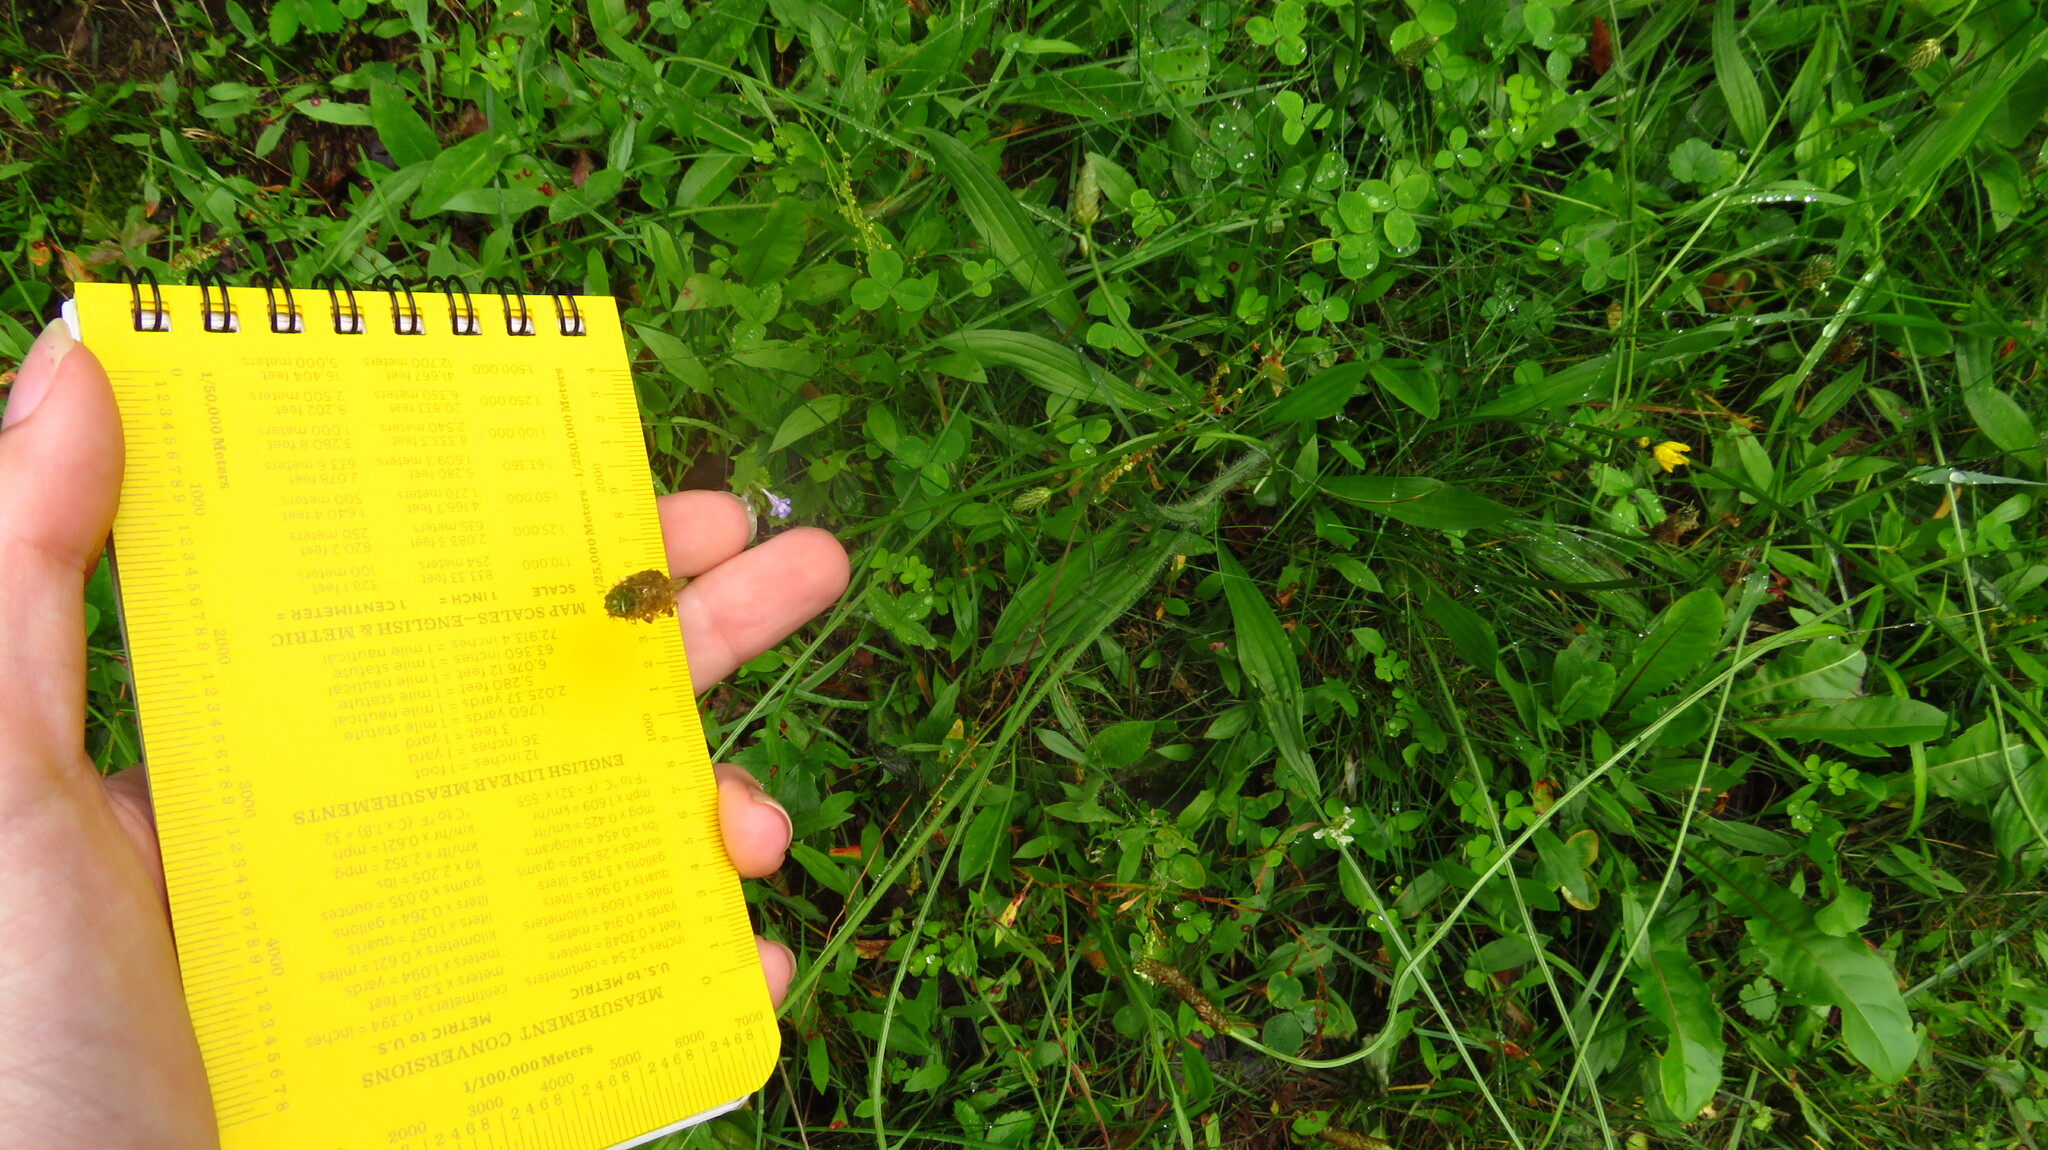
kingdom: Plantae
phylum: Tracheophyta
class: Magnoliopsida
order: Lamiales
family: Plantaginaceae
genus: Plantago
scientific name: Plantago lanceolata
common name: Ribwort plantain
